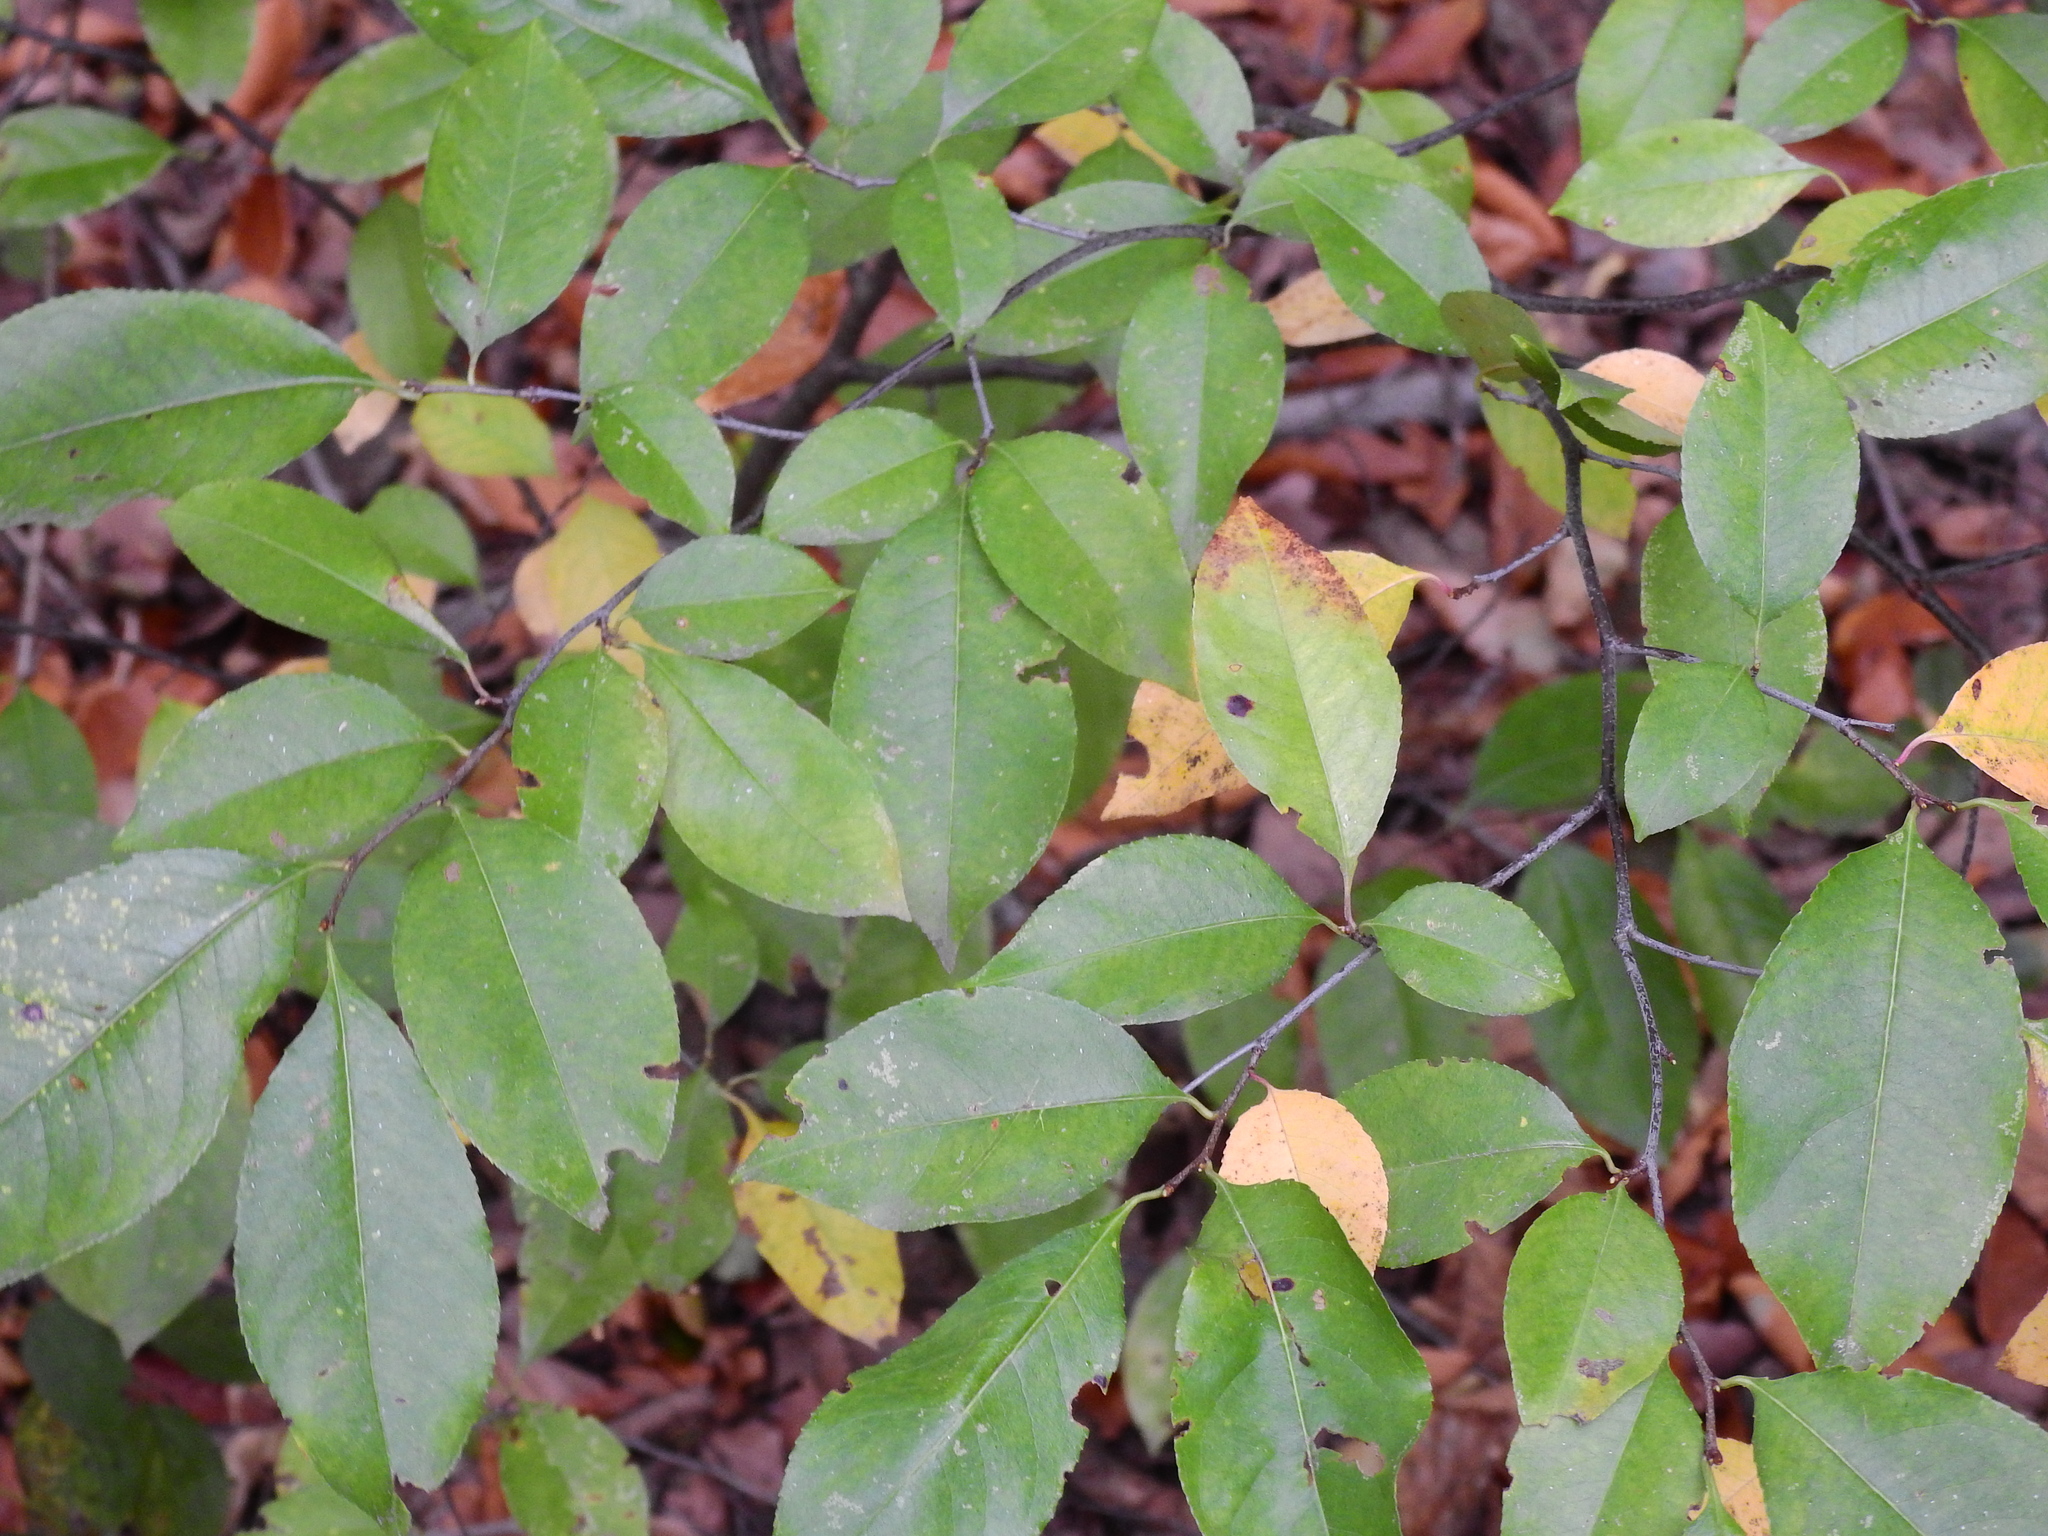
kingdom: Plantae
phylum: Tracheophyta
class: Magnoliopsida
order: Rosales
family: Rosaceae
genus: Prunus
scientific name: Prunus serotina
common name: Black cherry
